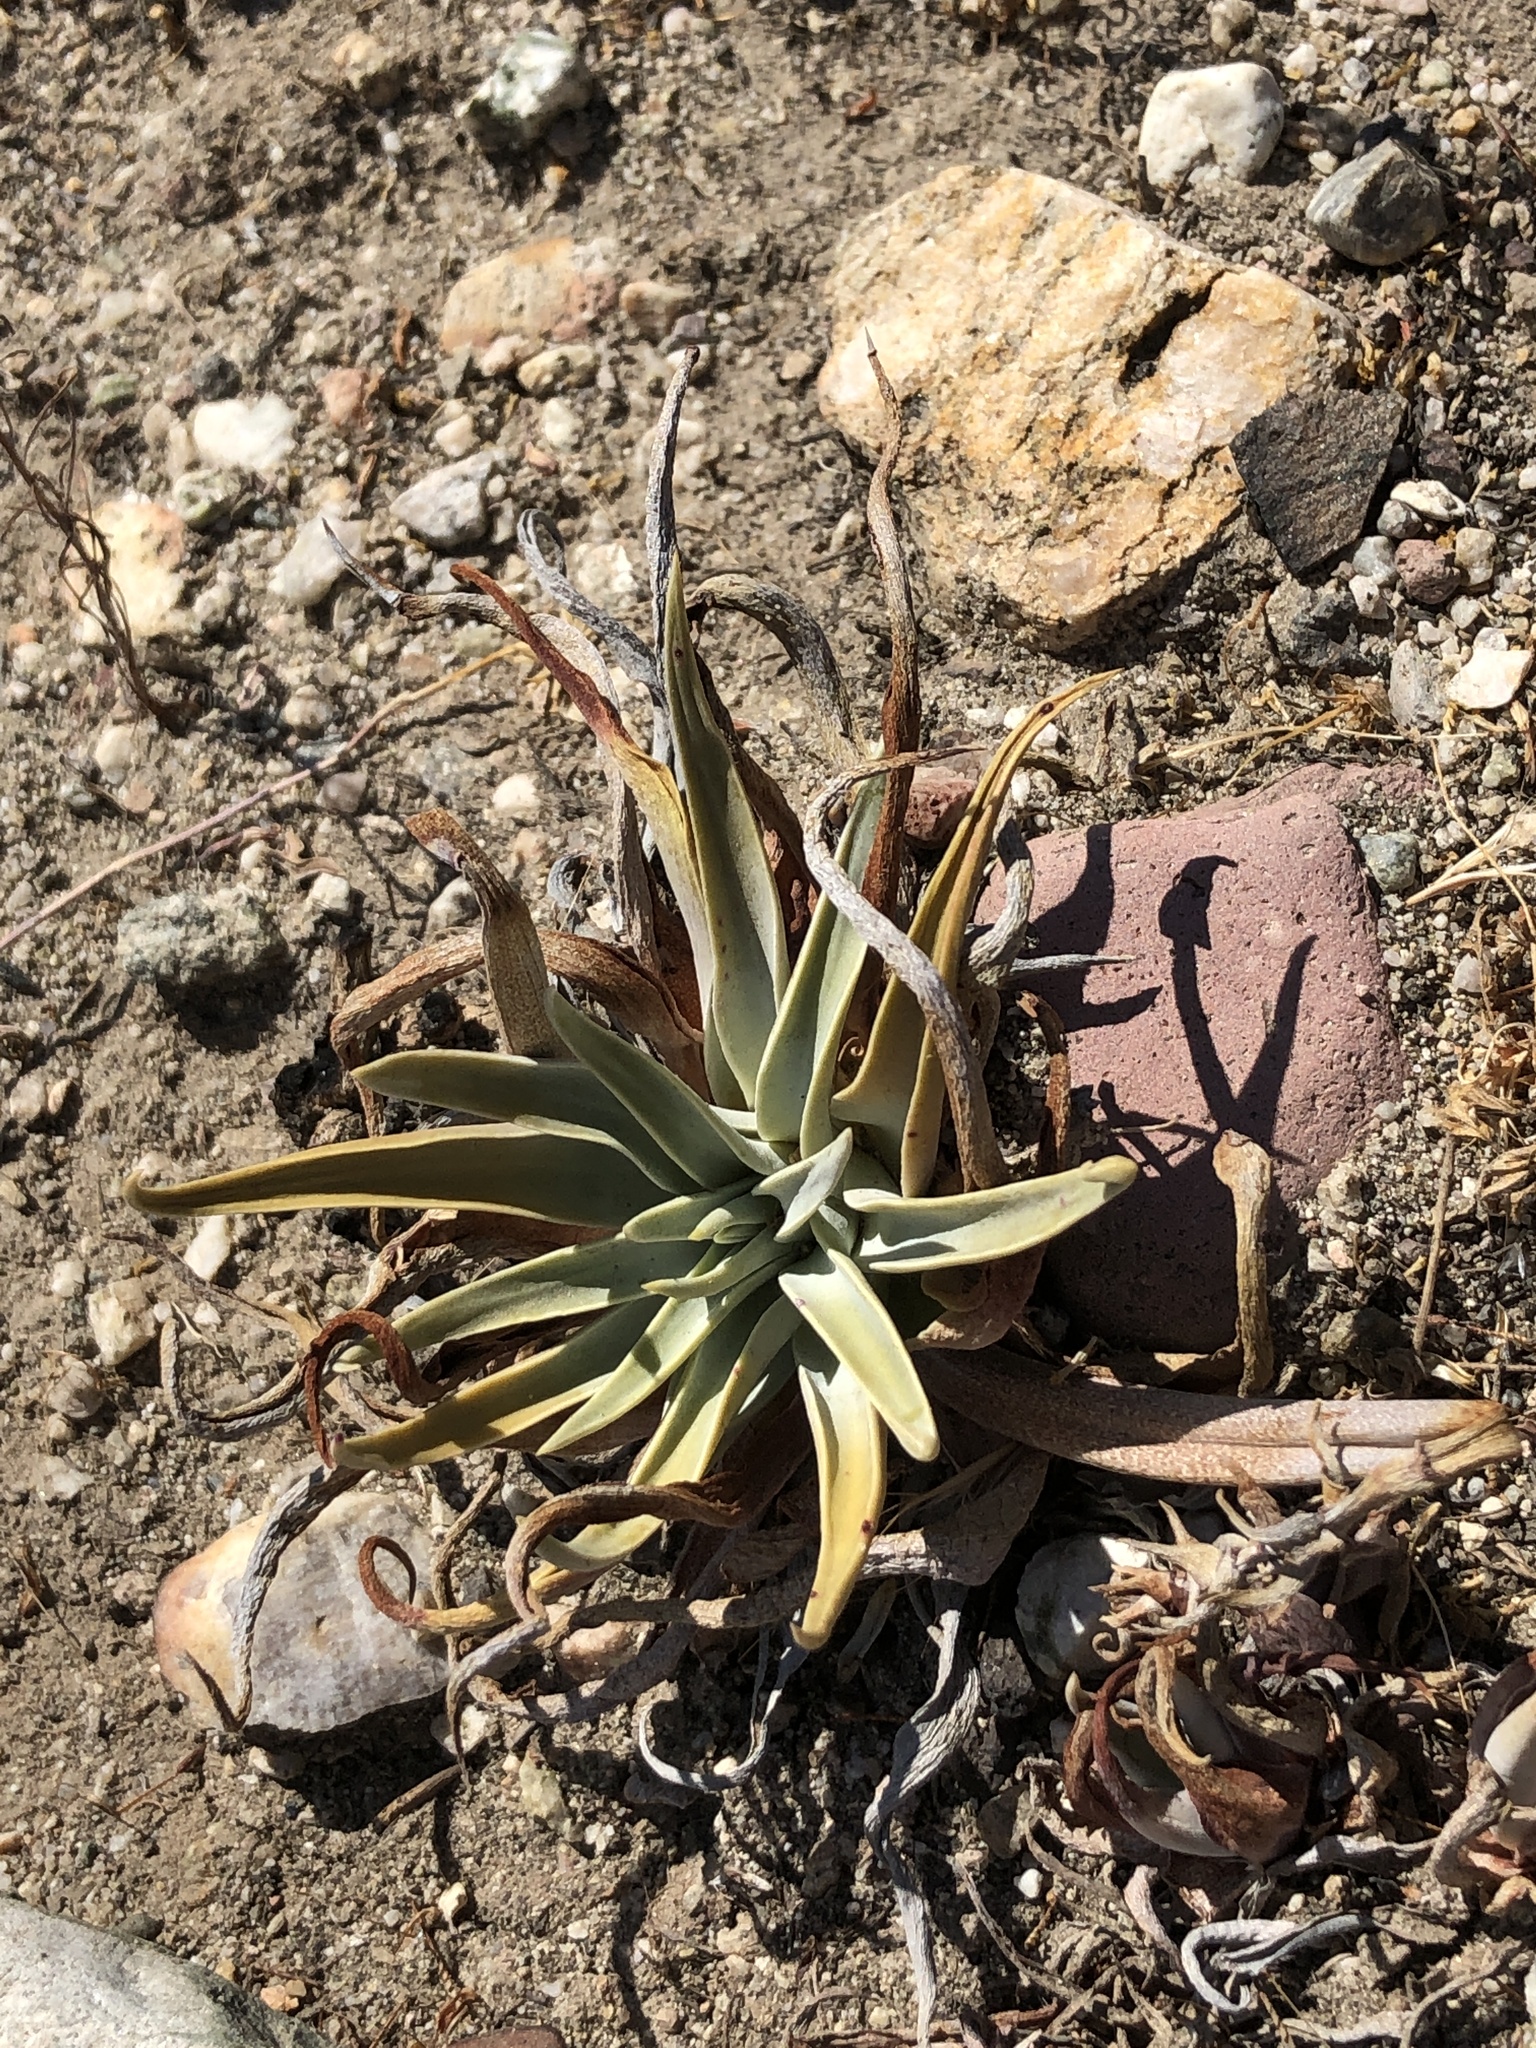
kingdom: Plantae
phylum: Tracheophyta
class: Magnoliopsida
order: Saxifragales
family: Crassulaceae
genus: Dudleya
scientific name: Dudleya lanceolata
